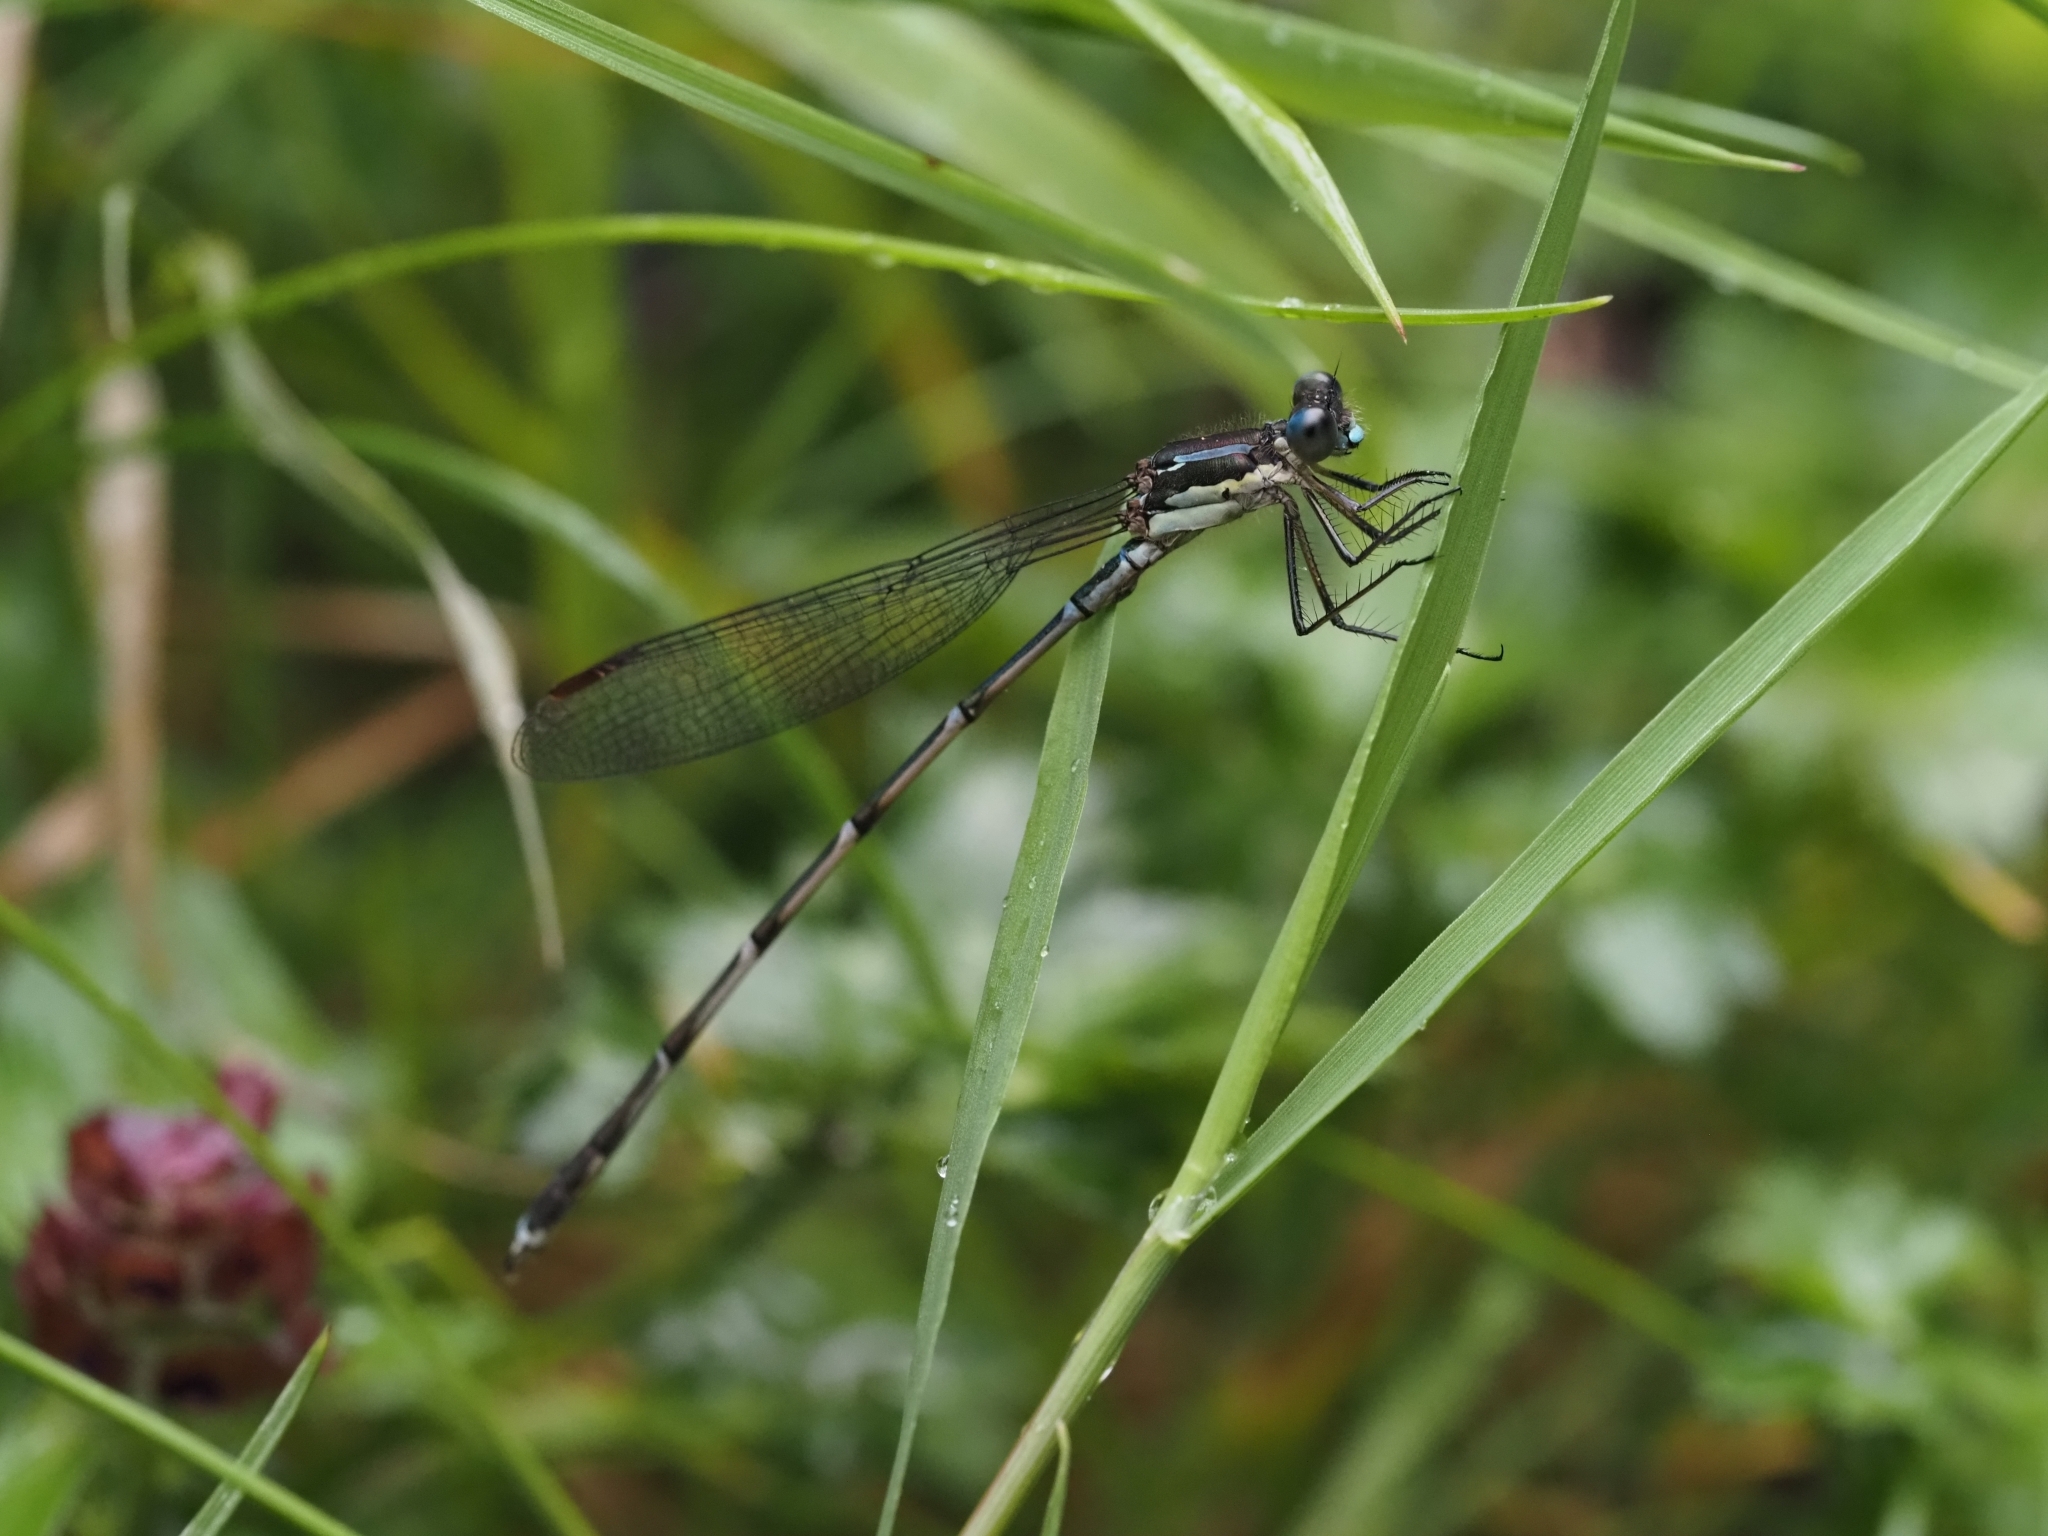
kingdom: Animalia
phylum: Arthropoda
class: Insecta
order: Odonata
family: Lestidae
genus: Austrolestes
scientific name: Austrolestes colensonis
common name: Blue damselfly
